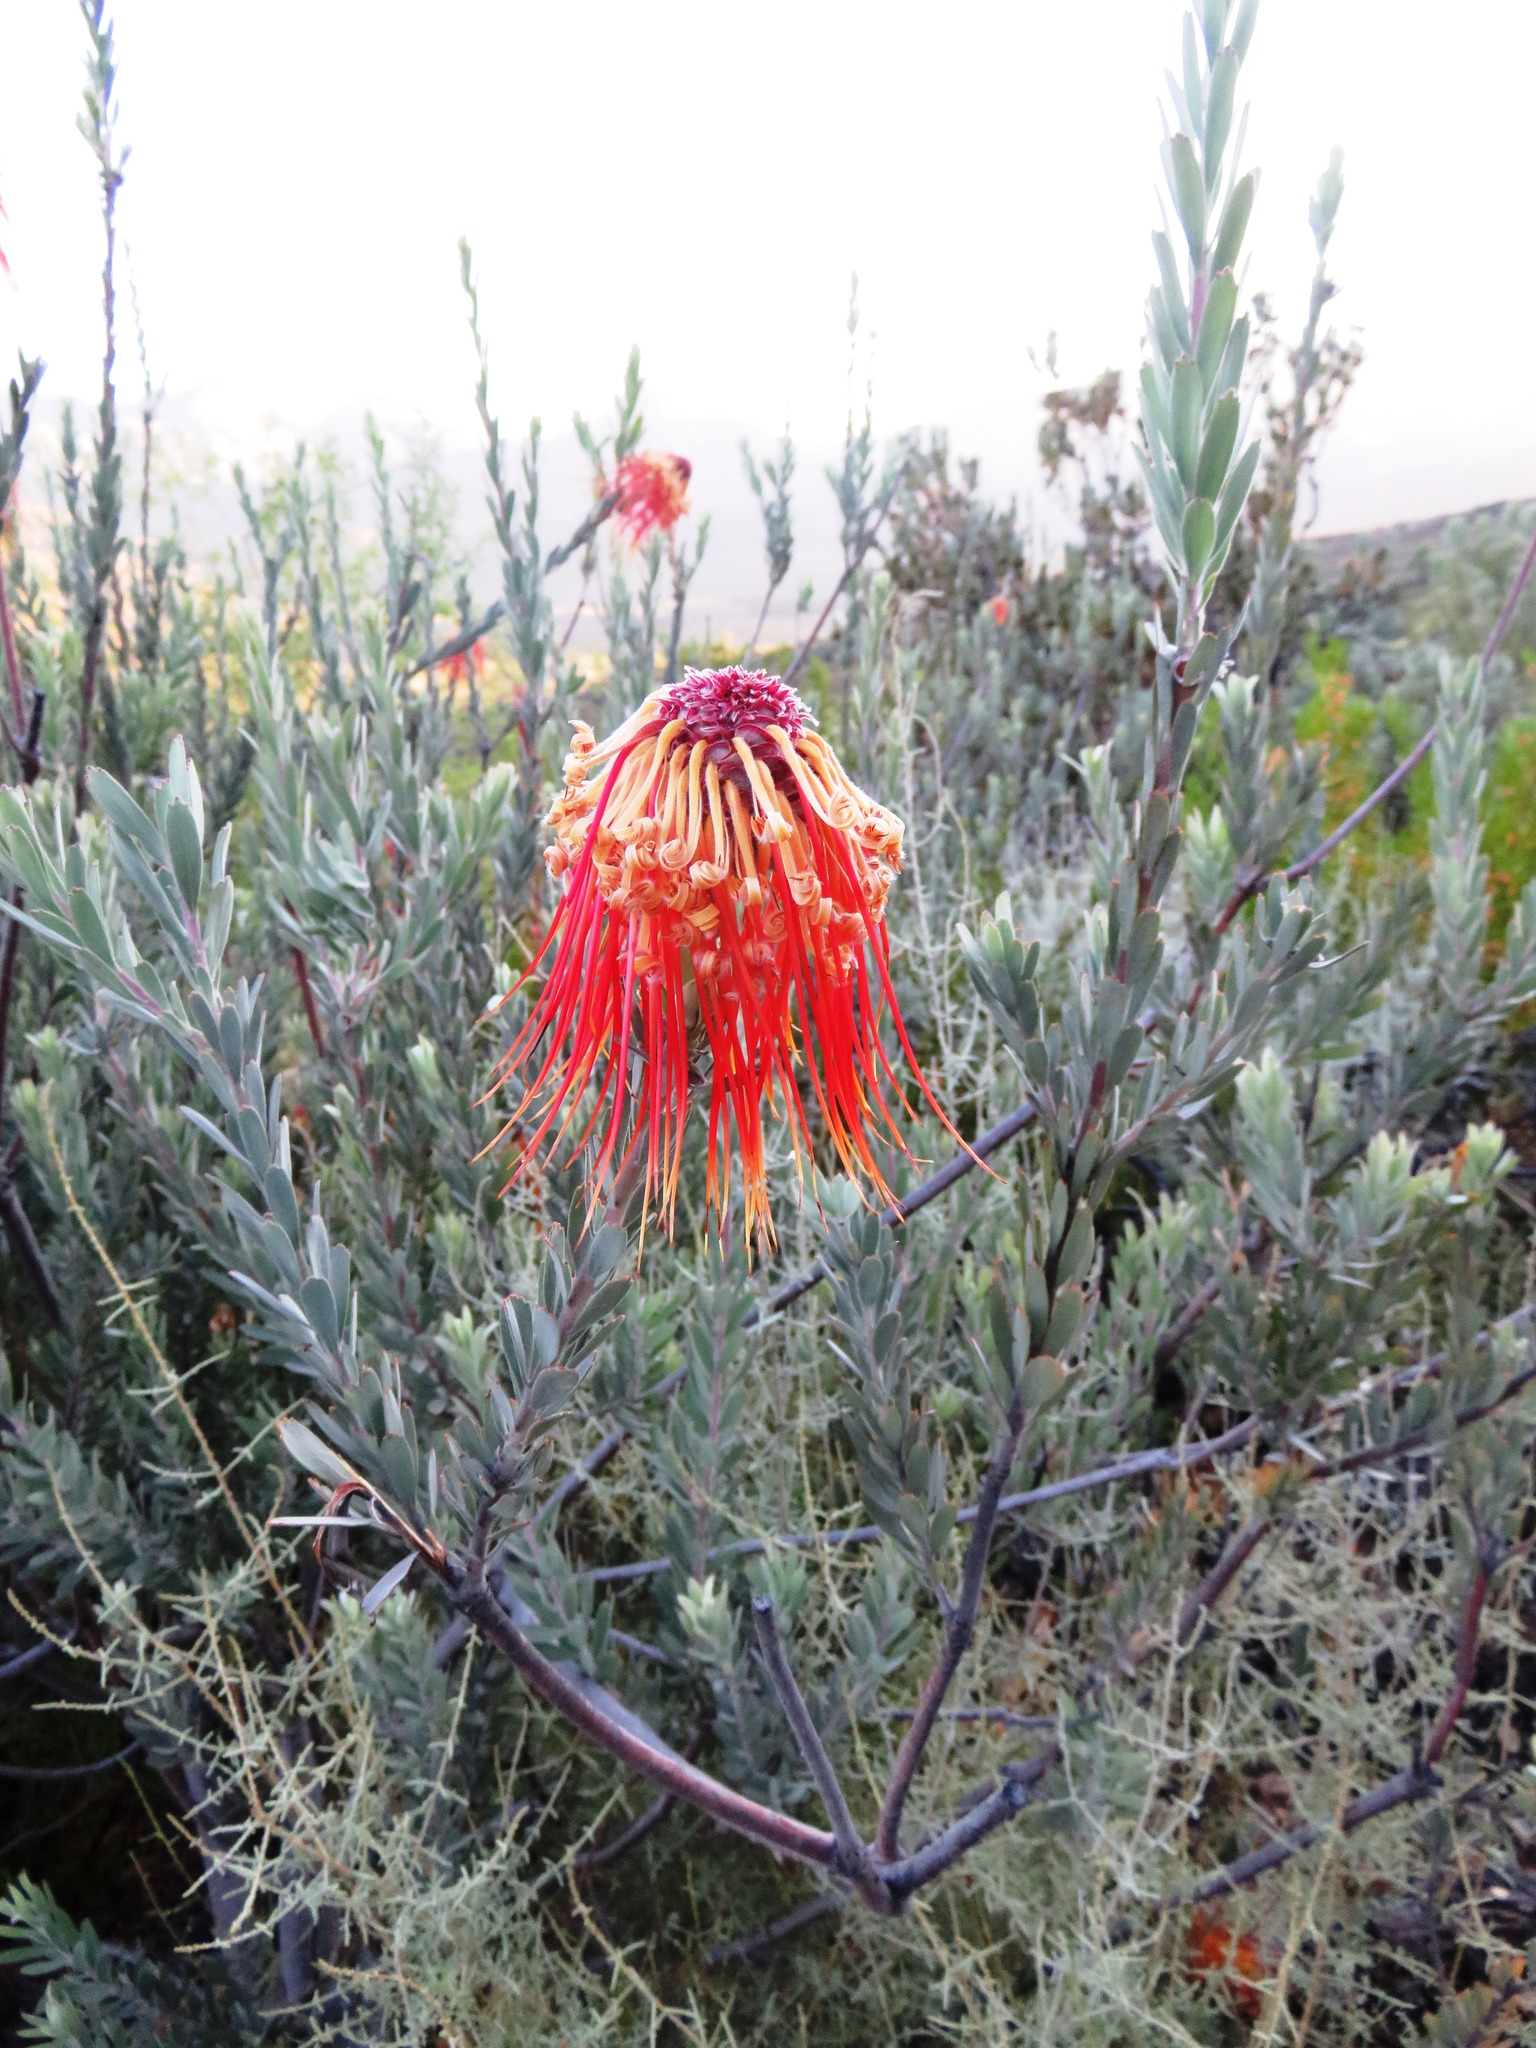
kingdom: Plantae
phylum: Tracheophyta
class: Magnoliopsida
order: Proteales
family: Proteaceae
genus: Leucospermum
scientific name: Leucospermum reflexum
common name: Rocket pincushion
